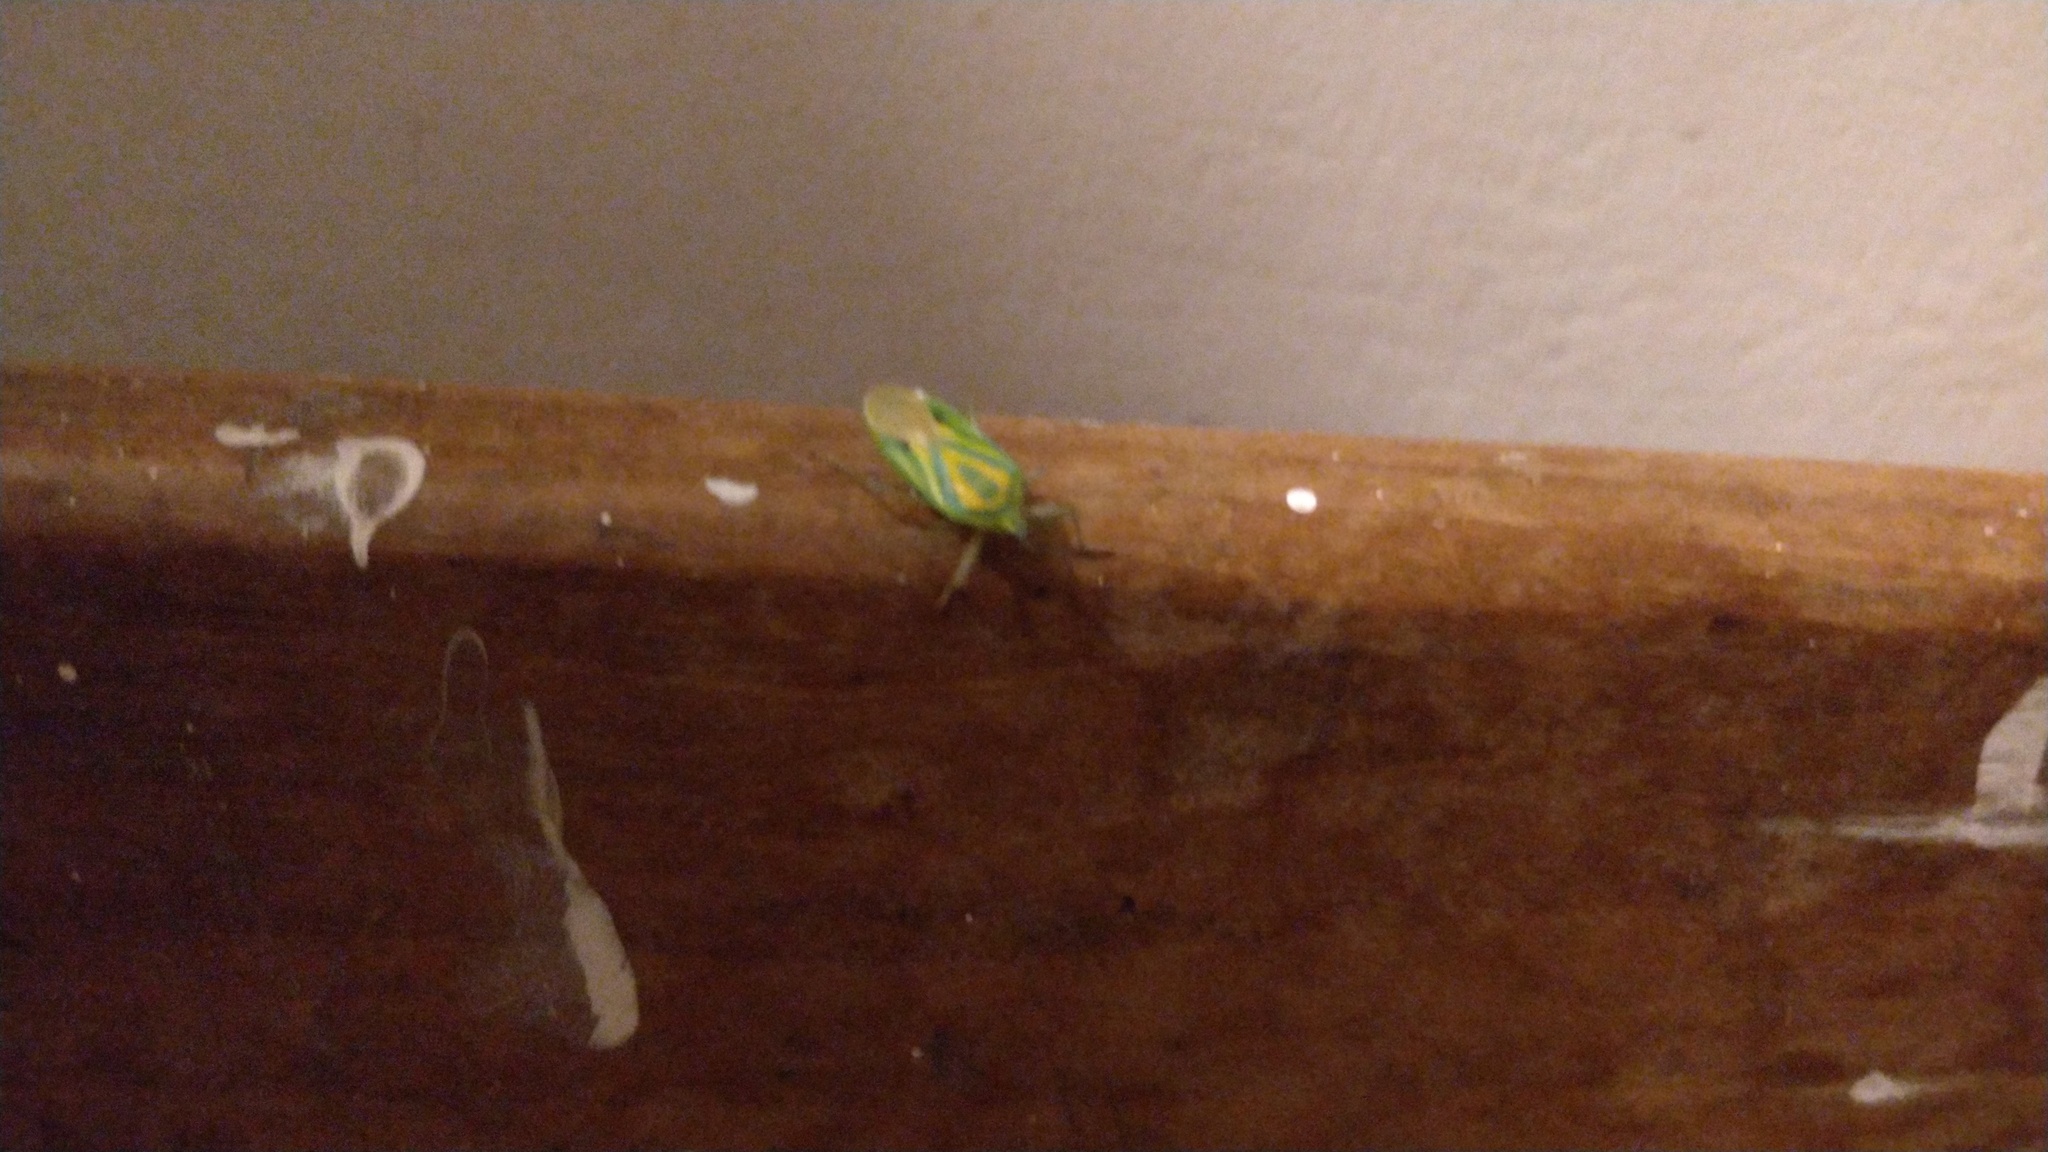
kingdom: Animalia
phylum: Arthropoda
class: Insecta
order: Hemiptera
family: Urostylididae
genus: Urolabida
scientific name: Urolabida
